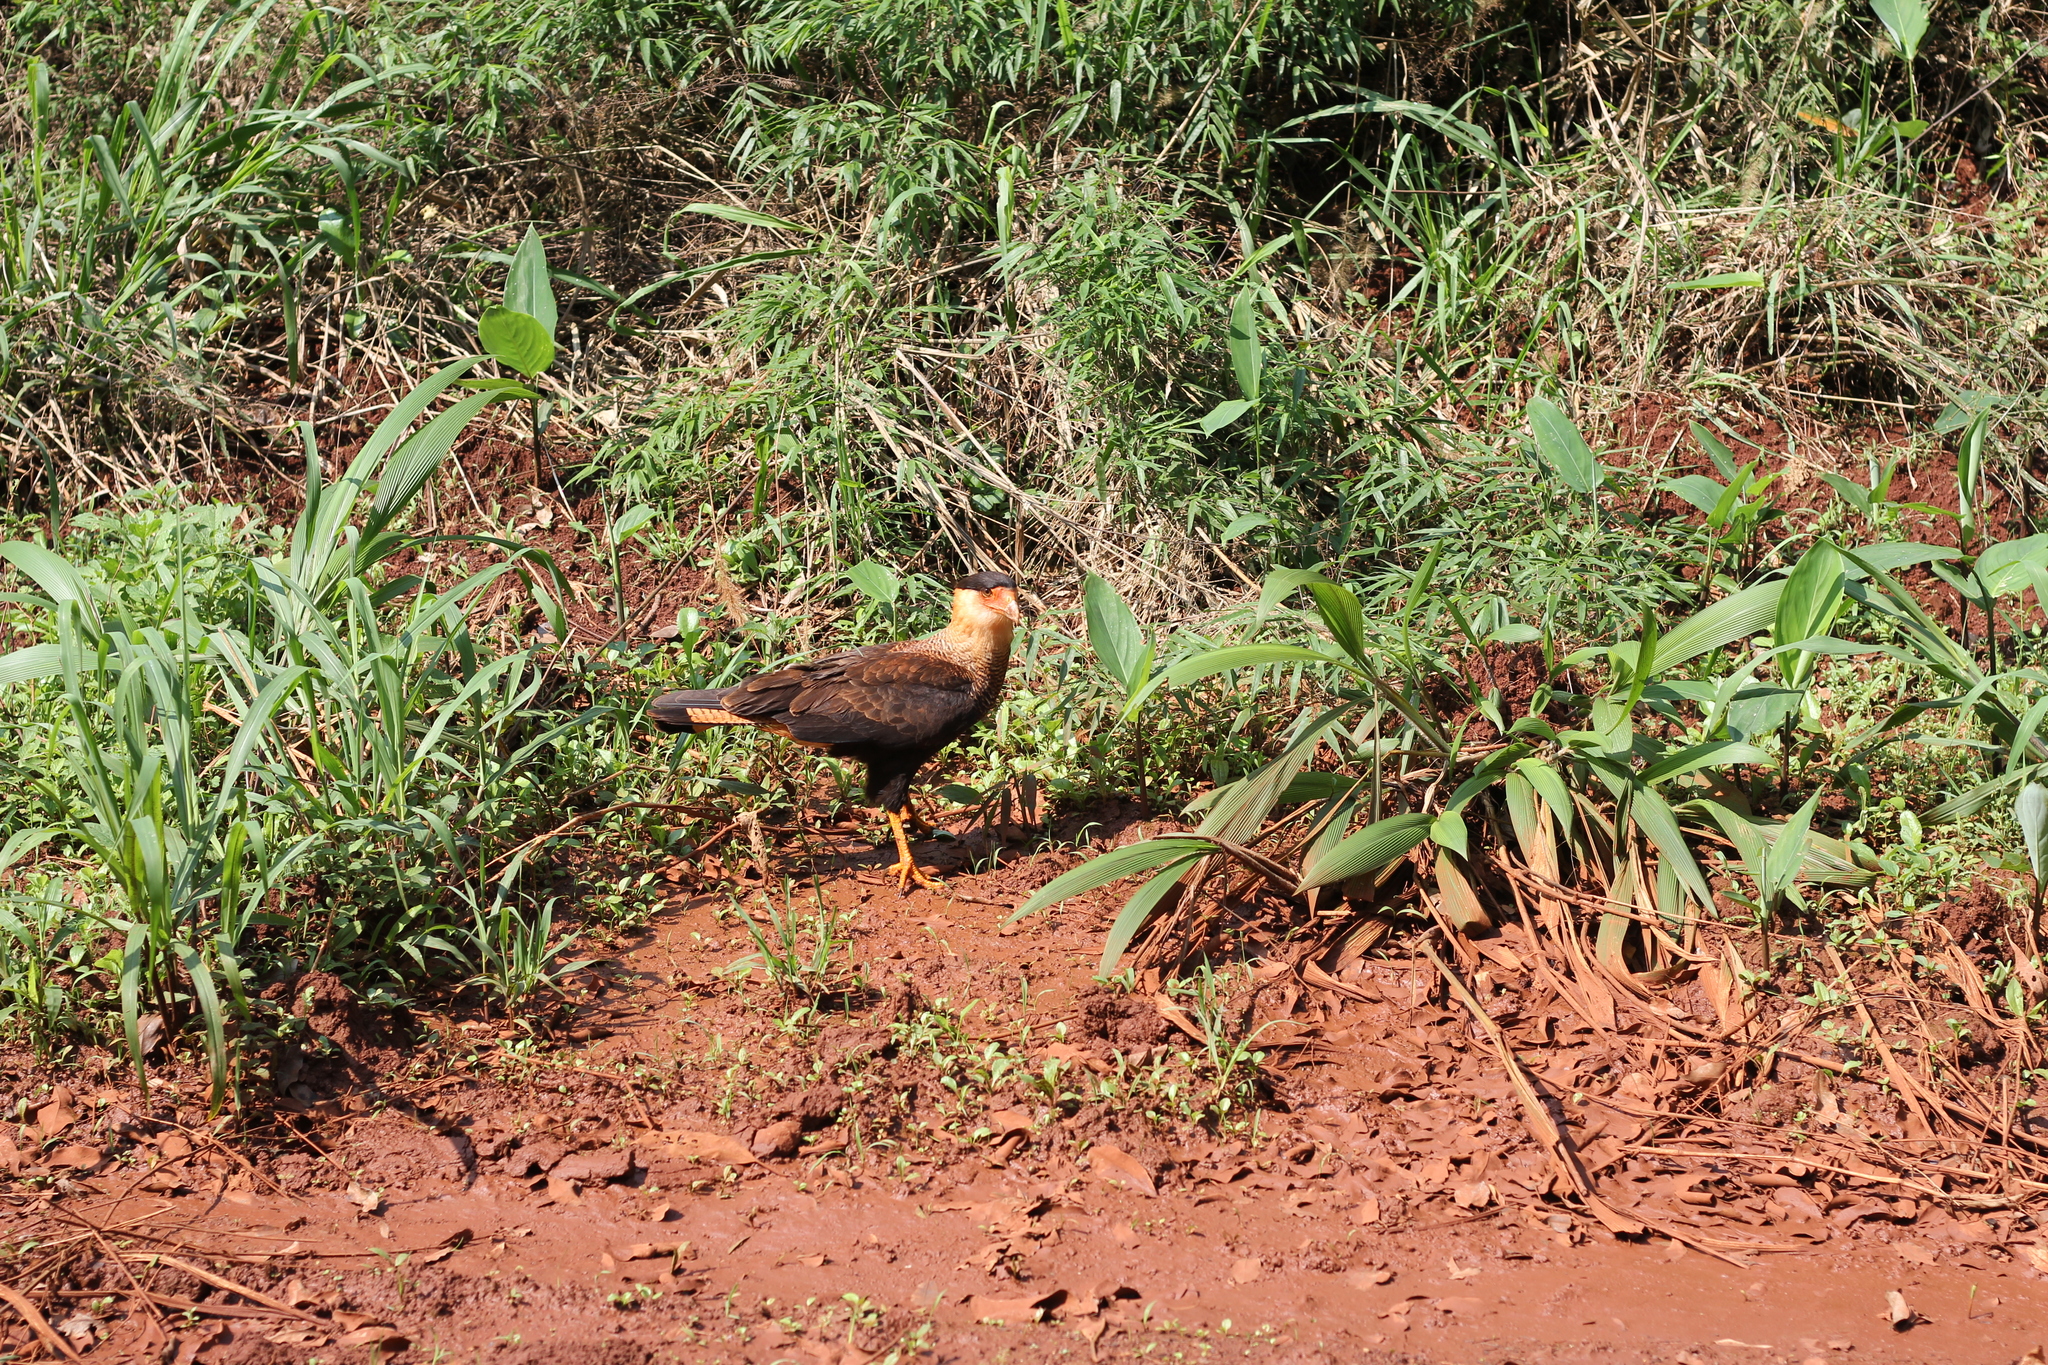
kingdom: Animalia
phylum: Chordata
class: Aves
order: Falconiformes
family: Falconidae
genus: Caracara
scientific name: Caracara plancus
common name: Southern caracara
